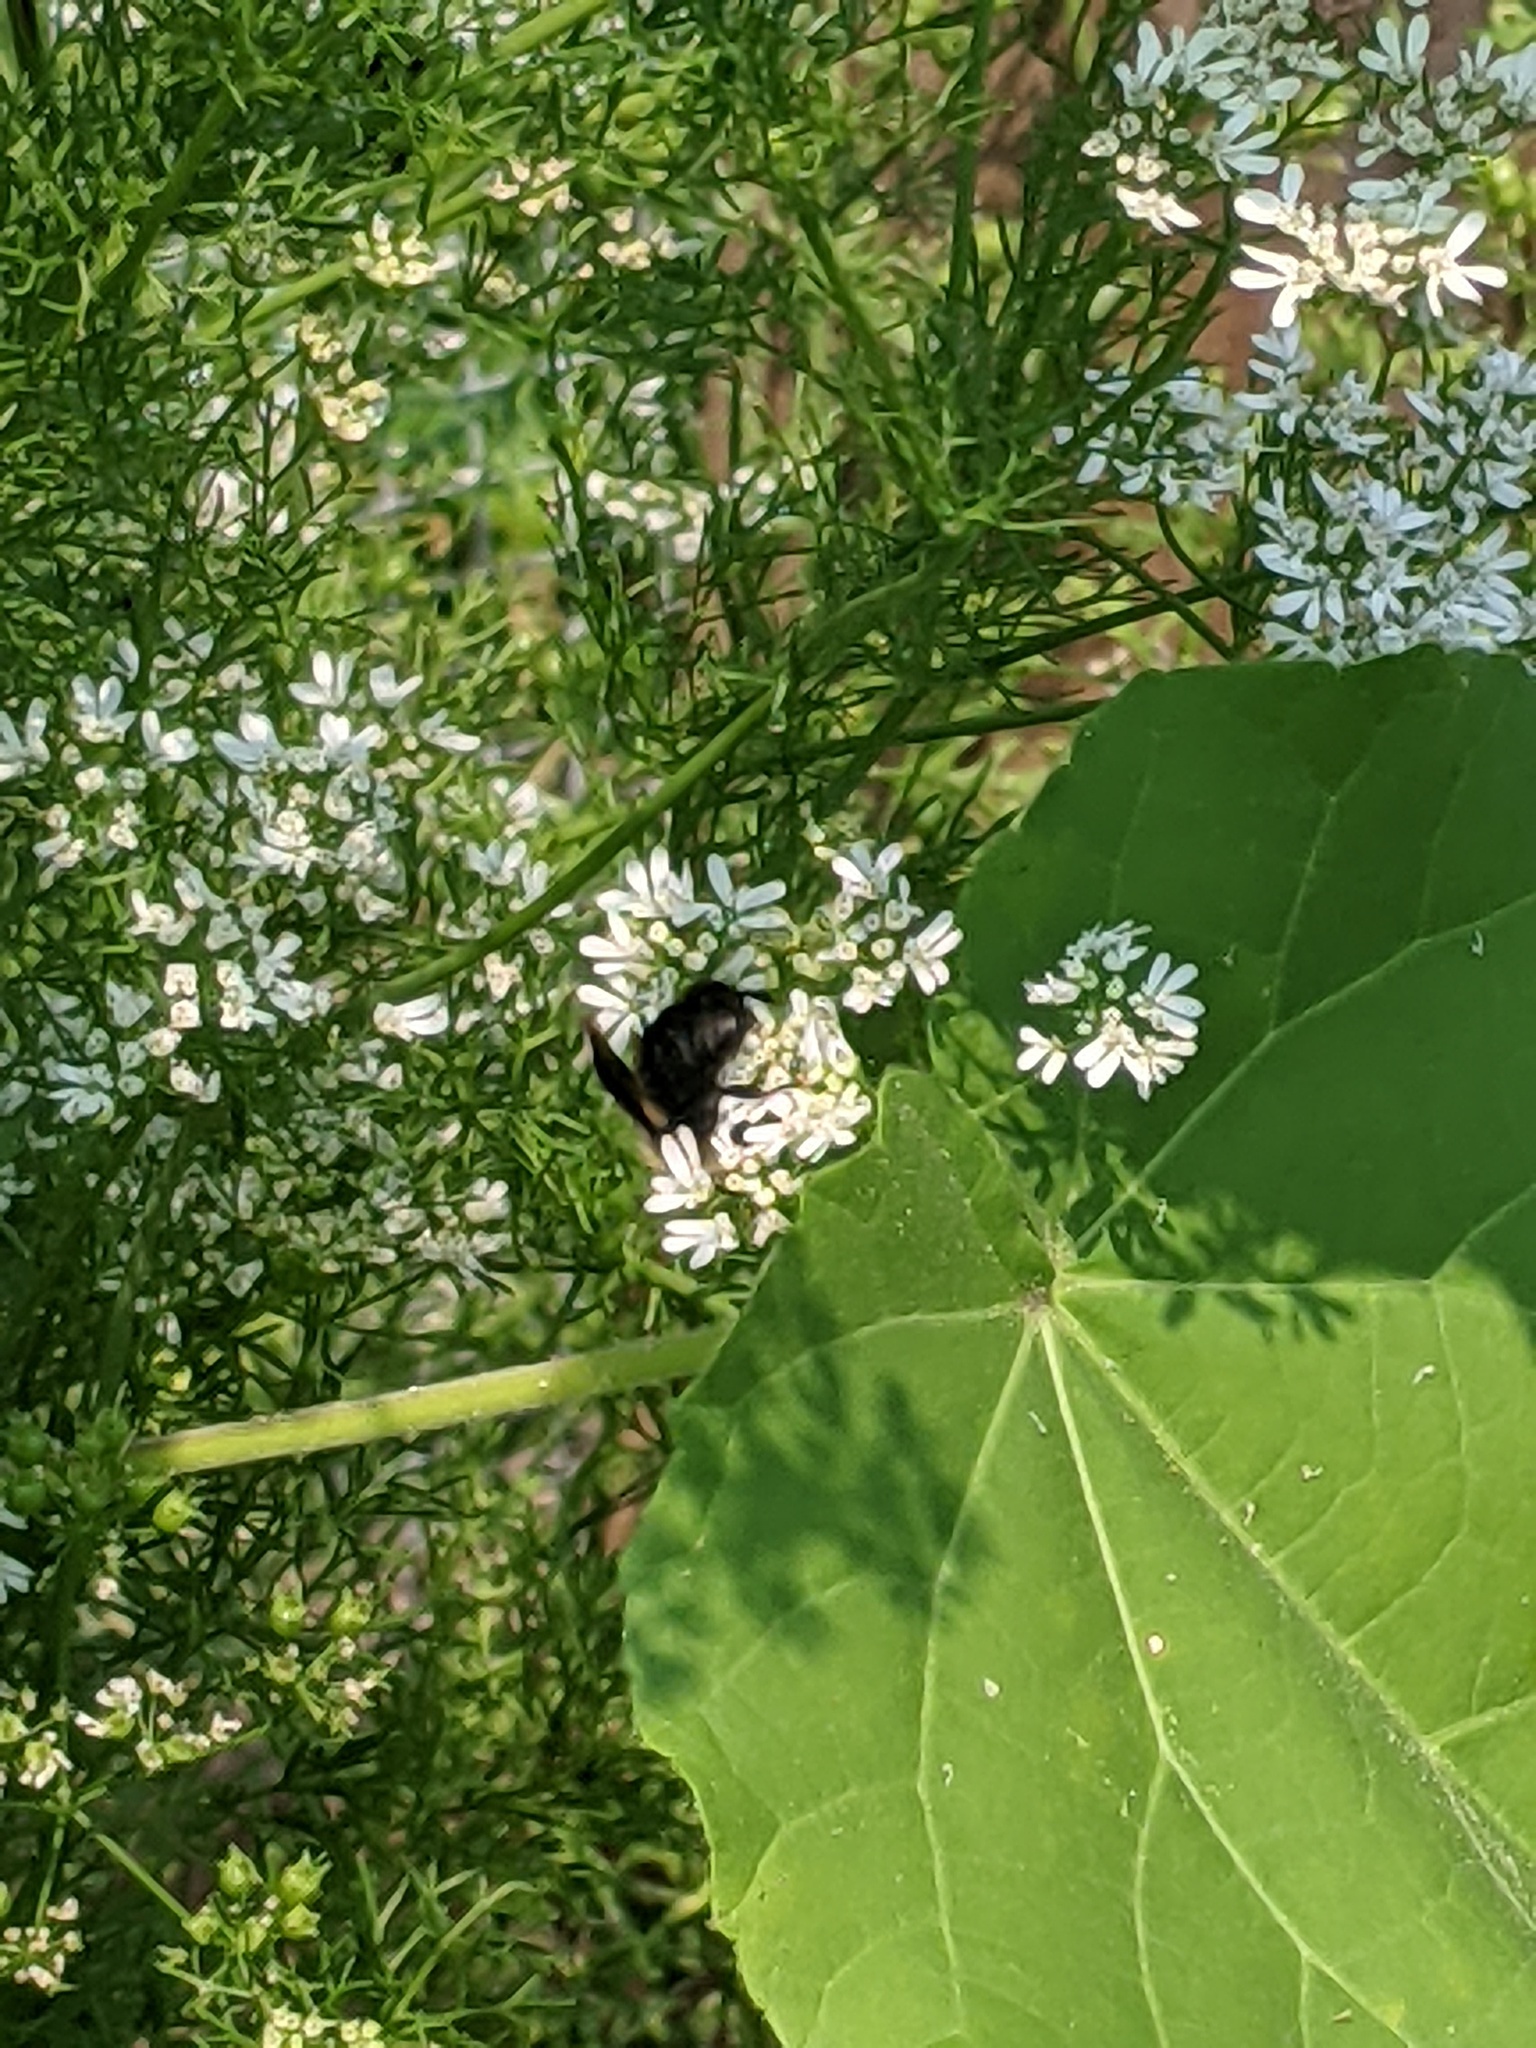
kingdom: Animalia
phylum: Arthropoda
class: Insecta
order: Hymenoptera
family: Apidae
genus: Bombus
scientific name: Bombus griseocollis
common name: Brown-belted bumble bee
